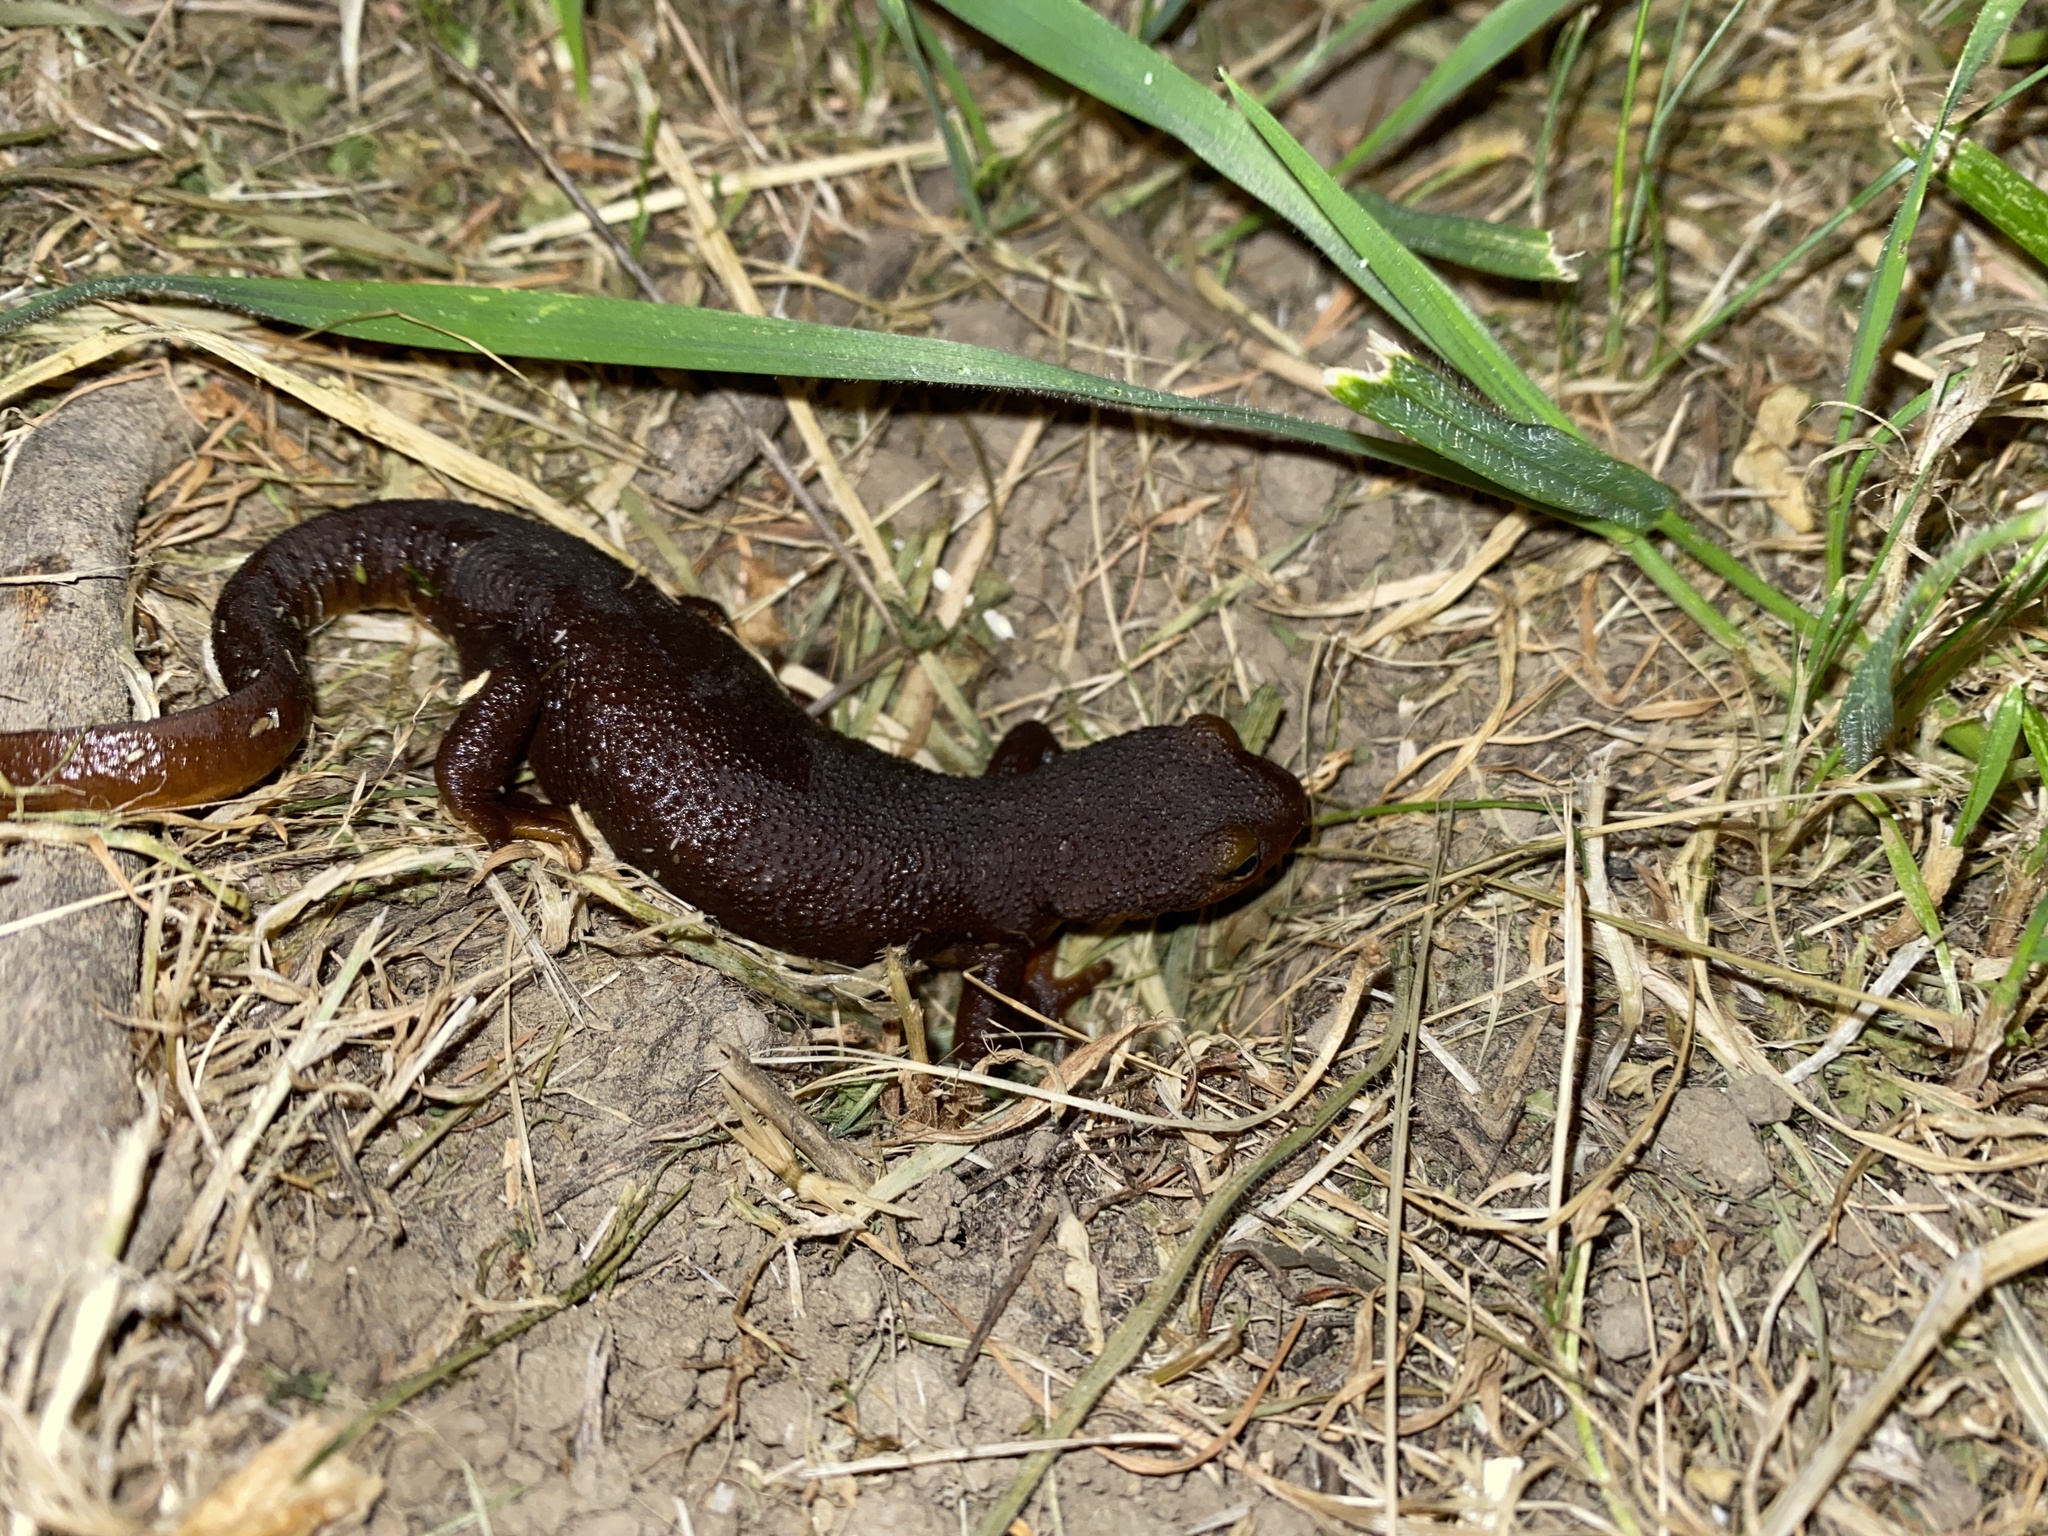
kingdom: Animalia
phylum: Chordata
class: Amphibia
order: Caudata
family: Salamandridae
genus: Taricha
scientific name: Taricha torosa
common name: California newt
